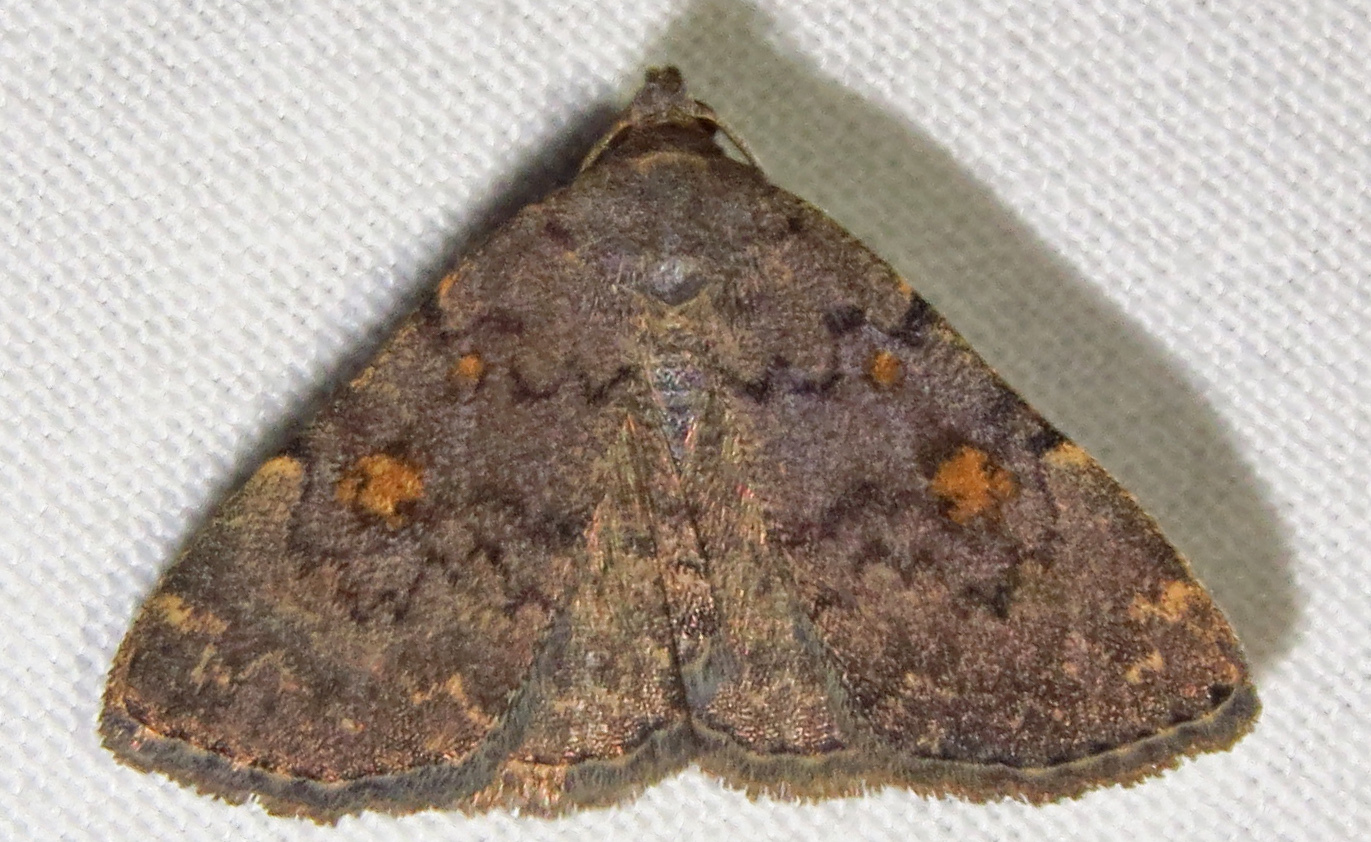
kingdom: Animalia
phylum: Arthropoda
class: Insecta
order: Lepidoptera
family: Erebidae
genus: Idia
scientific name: Idia aemula
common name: Common idia moth
